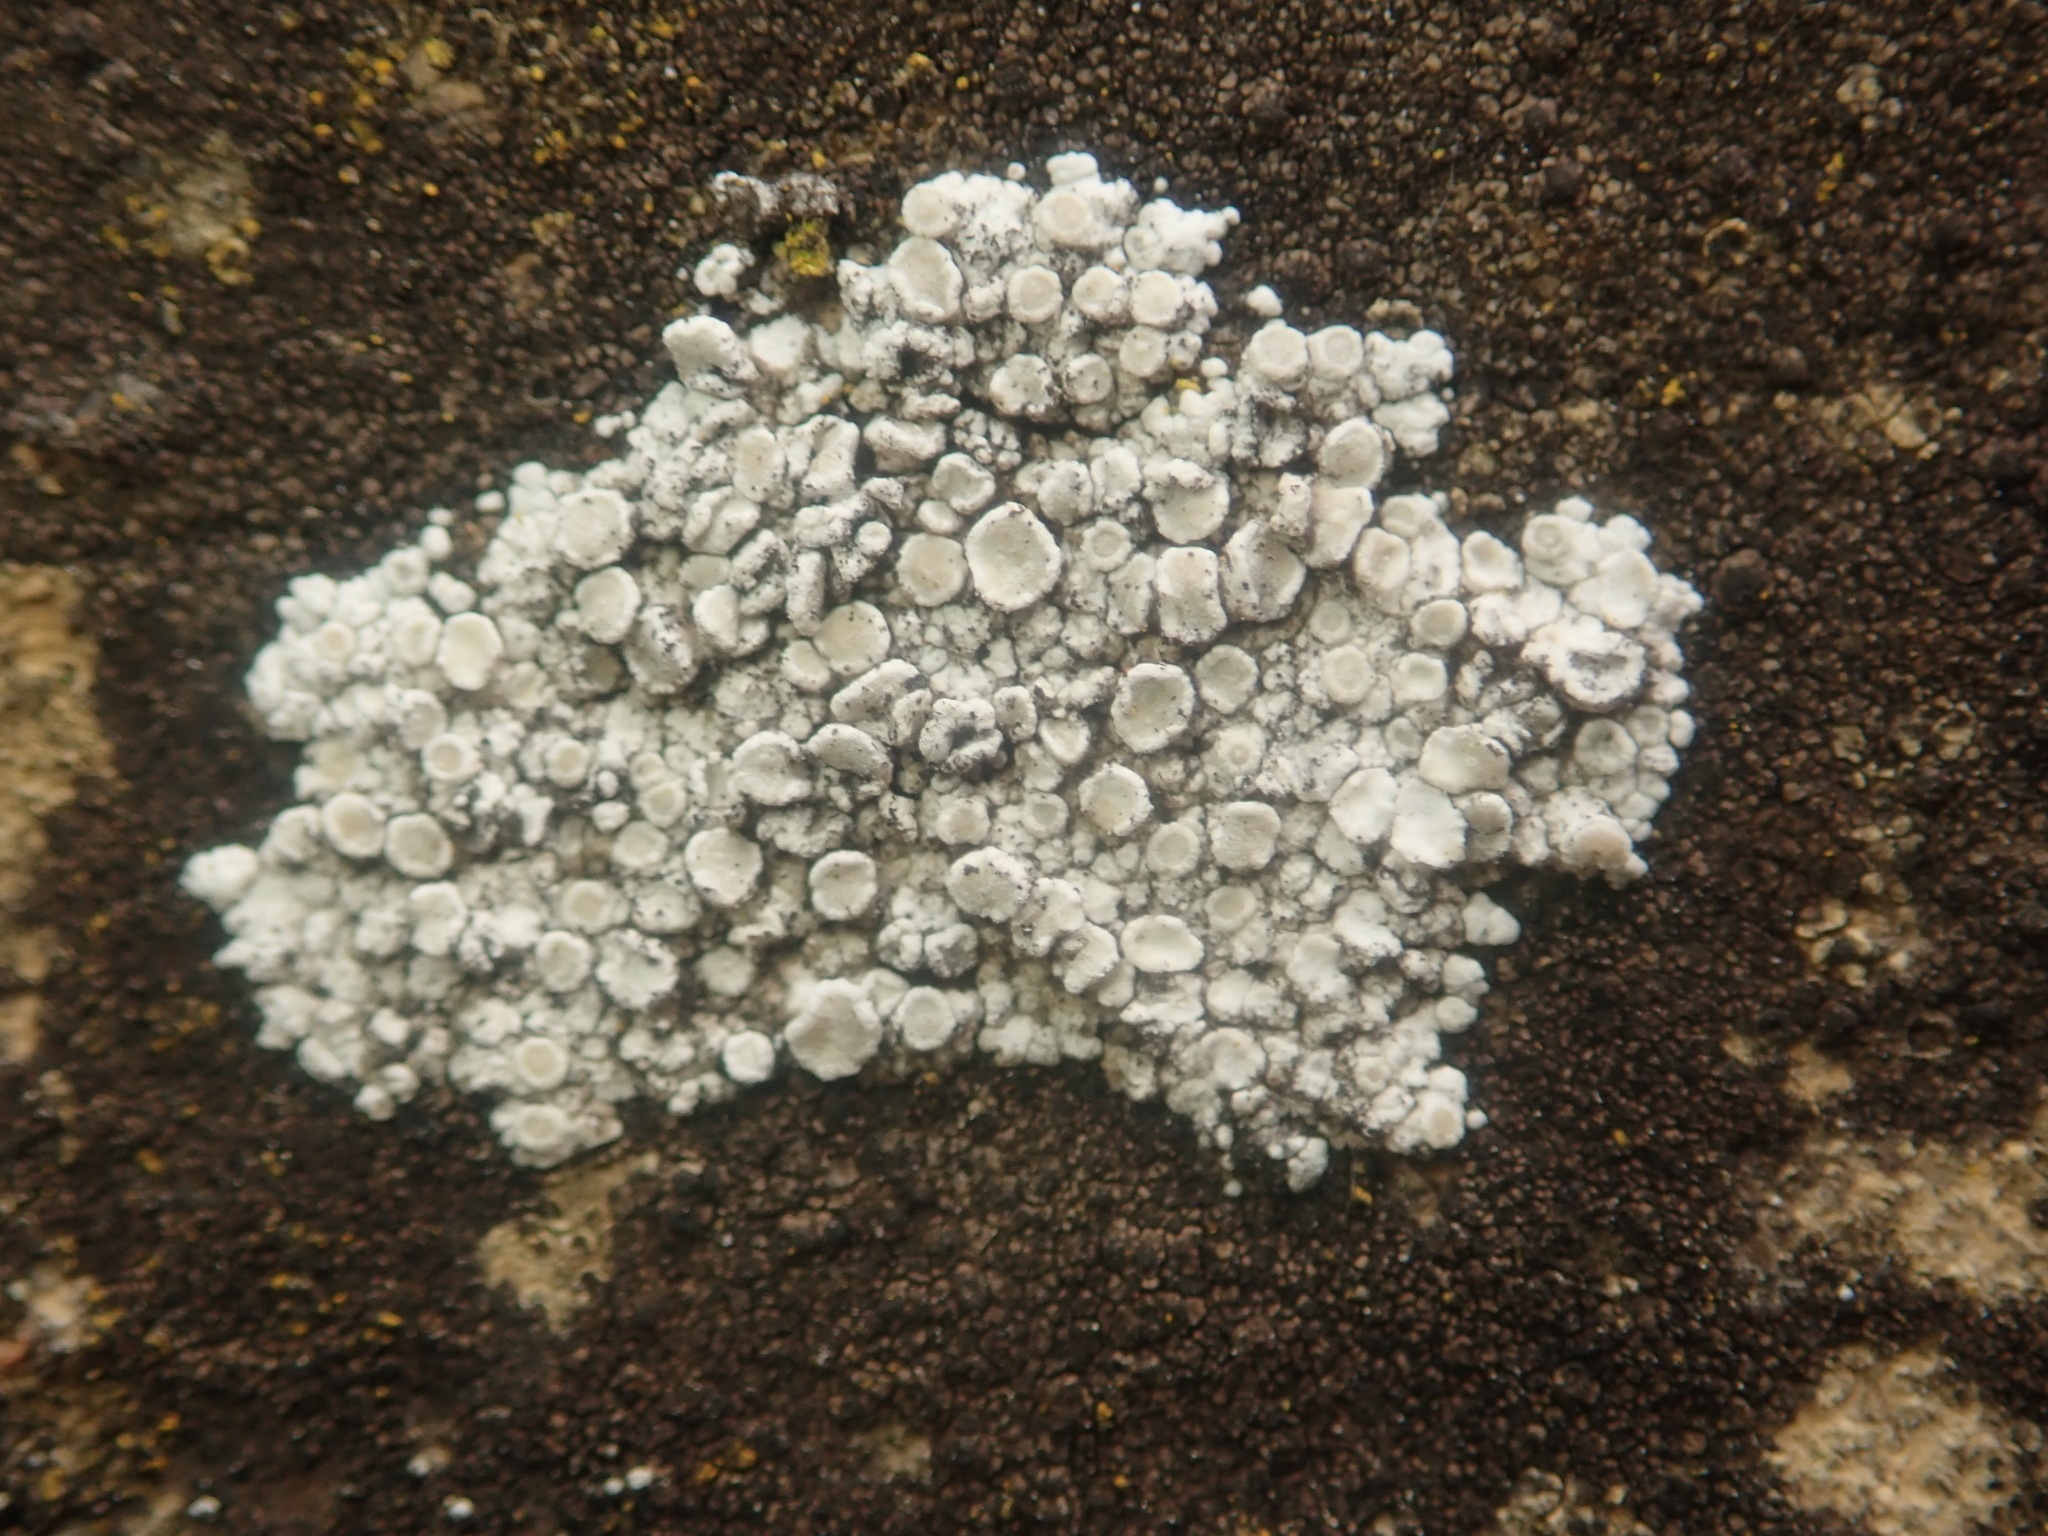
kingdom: Fungi
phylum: Ascomycota
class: Lecanoromycetes
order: Lecanorales
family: Lecanoraceae
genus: Polyozosia
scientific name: Polyozosia albescens
